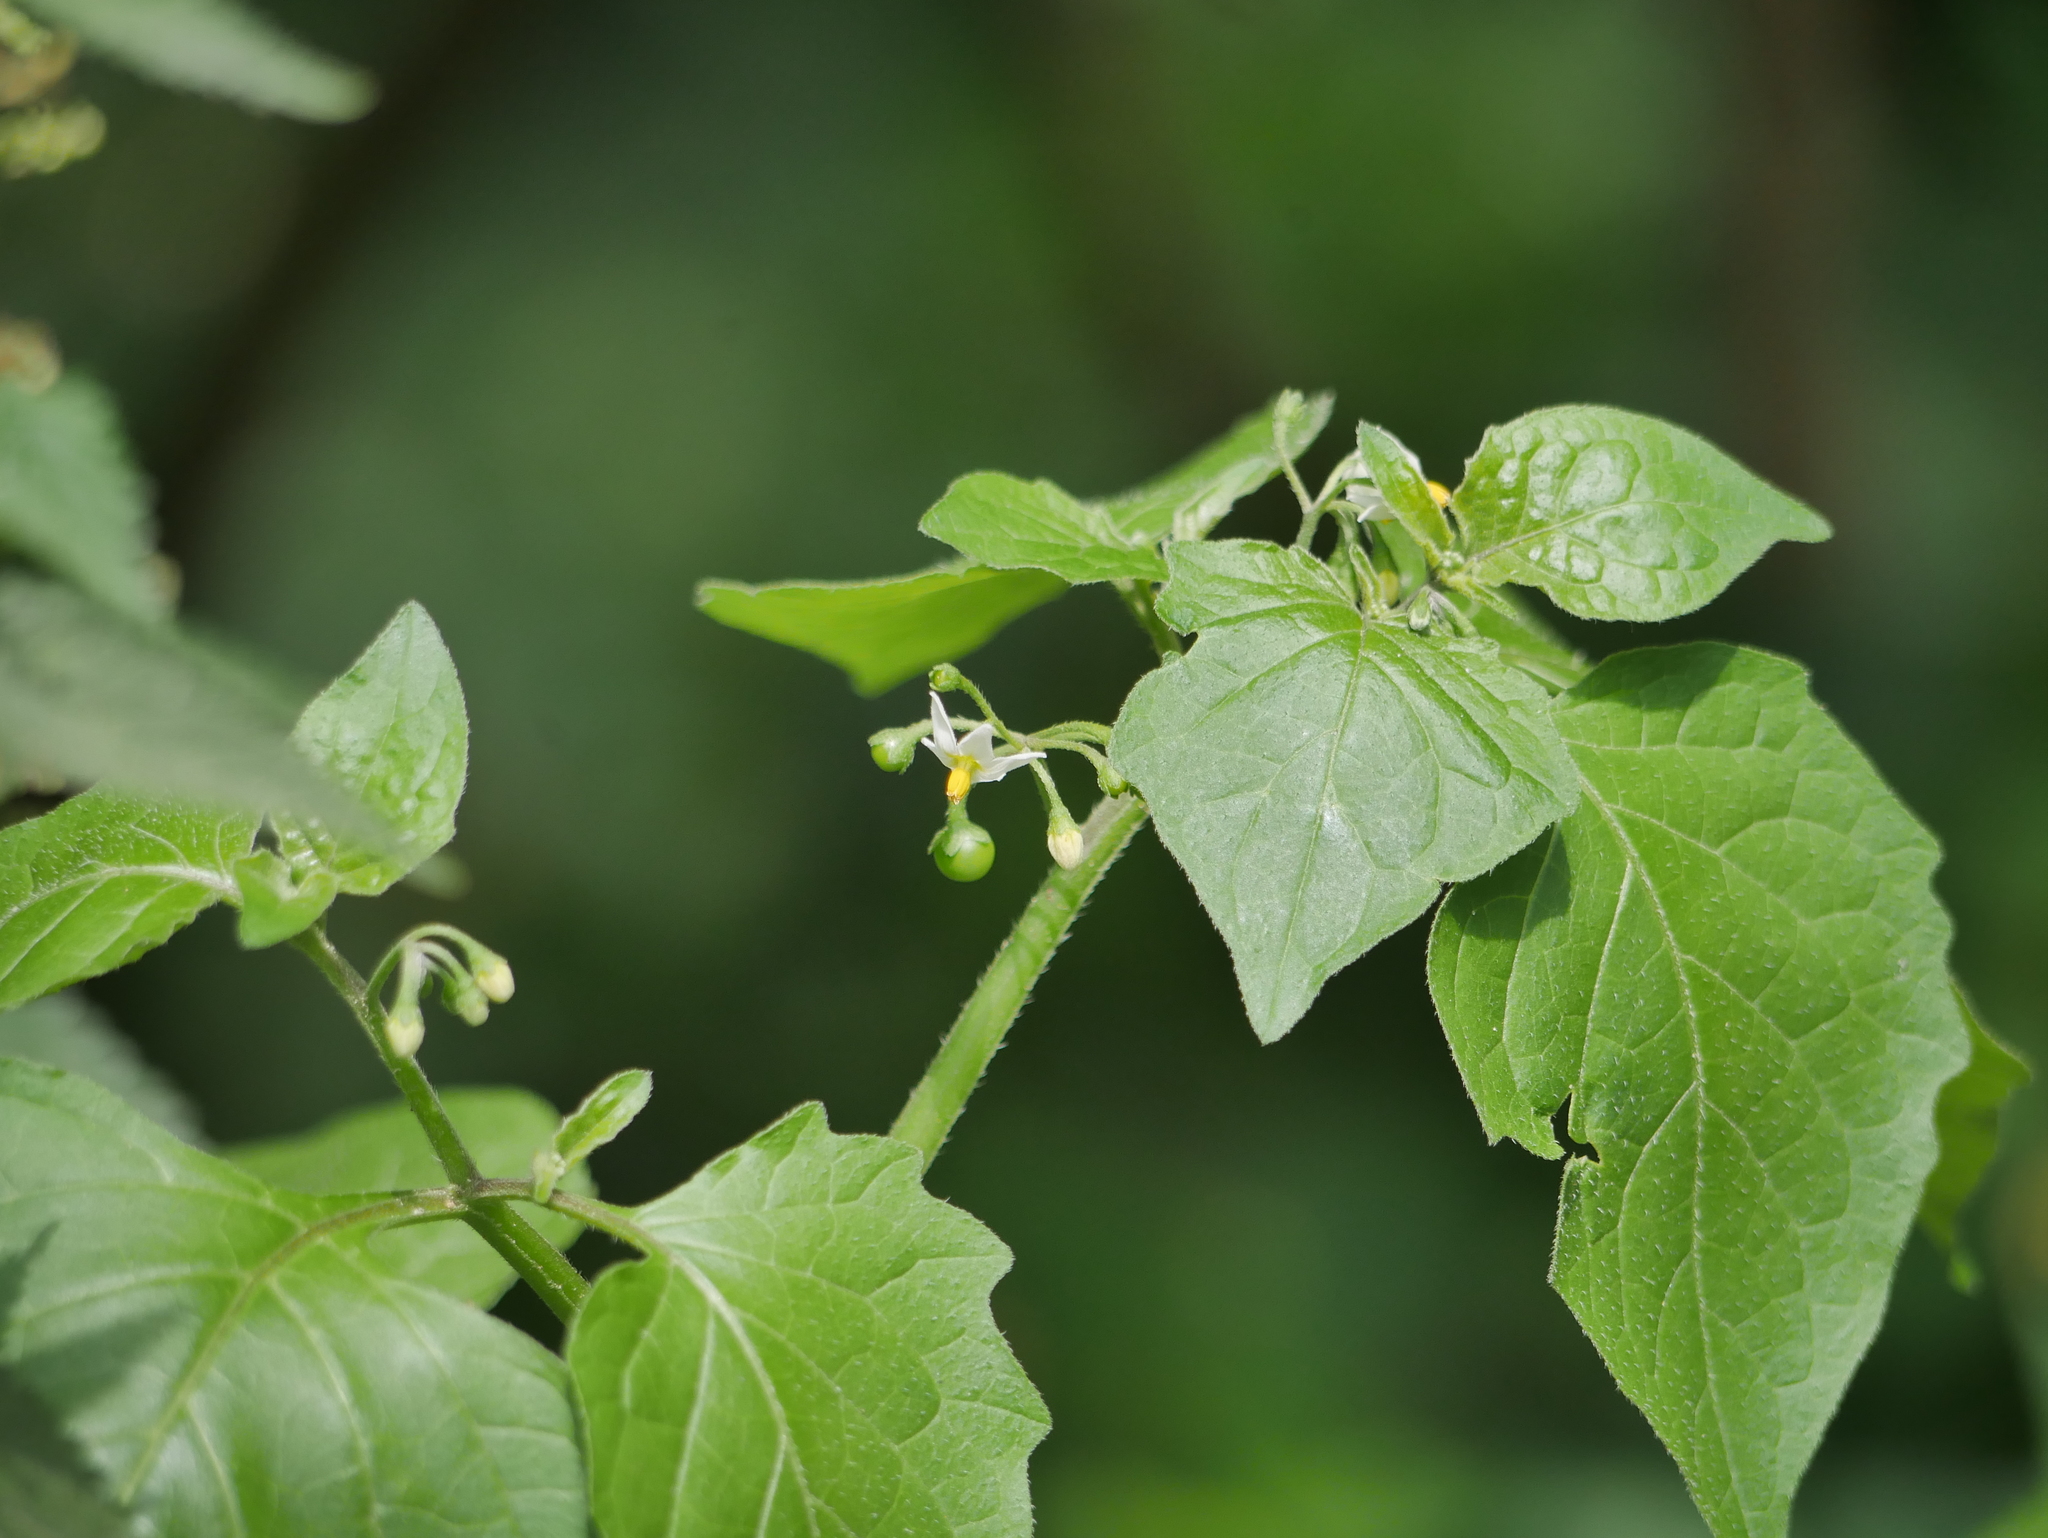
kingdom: Plantae
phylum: Tracheophyta
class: Magnoliopsida
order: Solanales
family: Solanaceae
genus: Solanum
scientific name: Solanum nigrum
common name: Black nightshade
